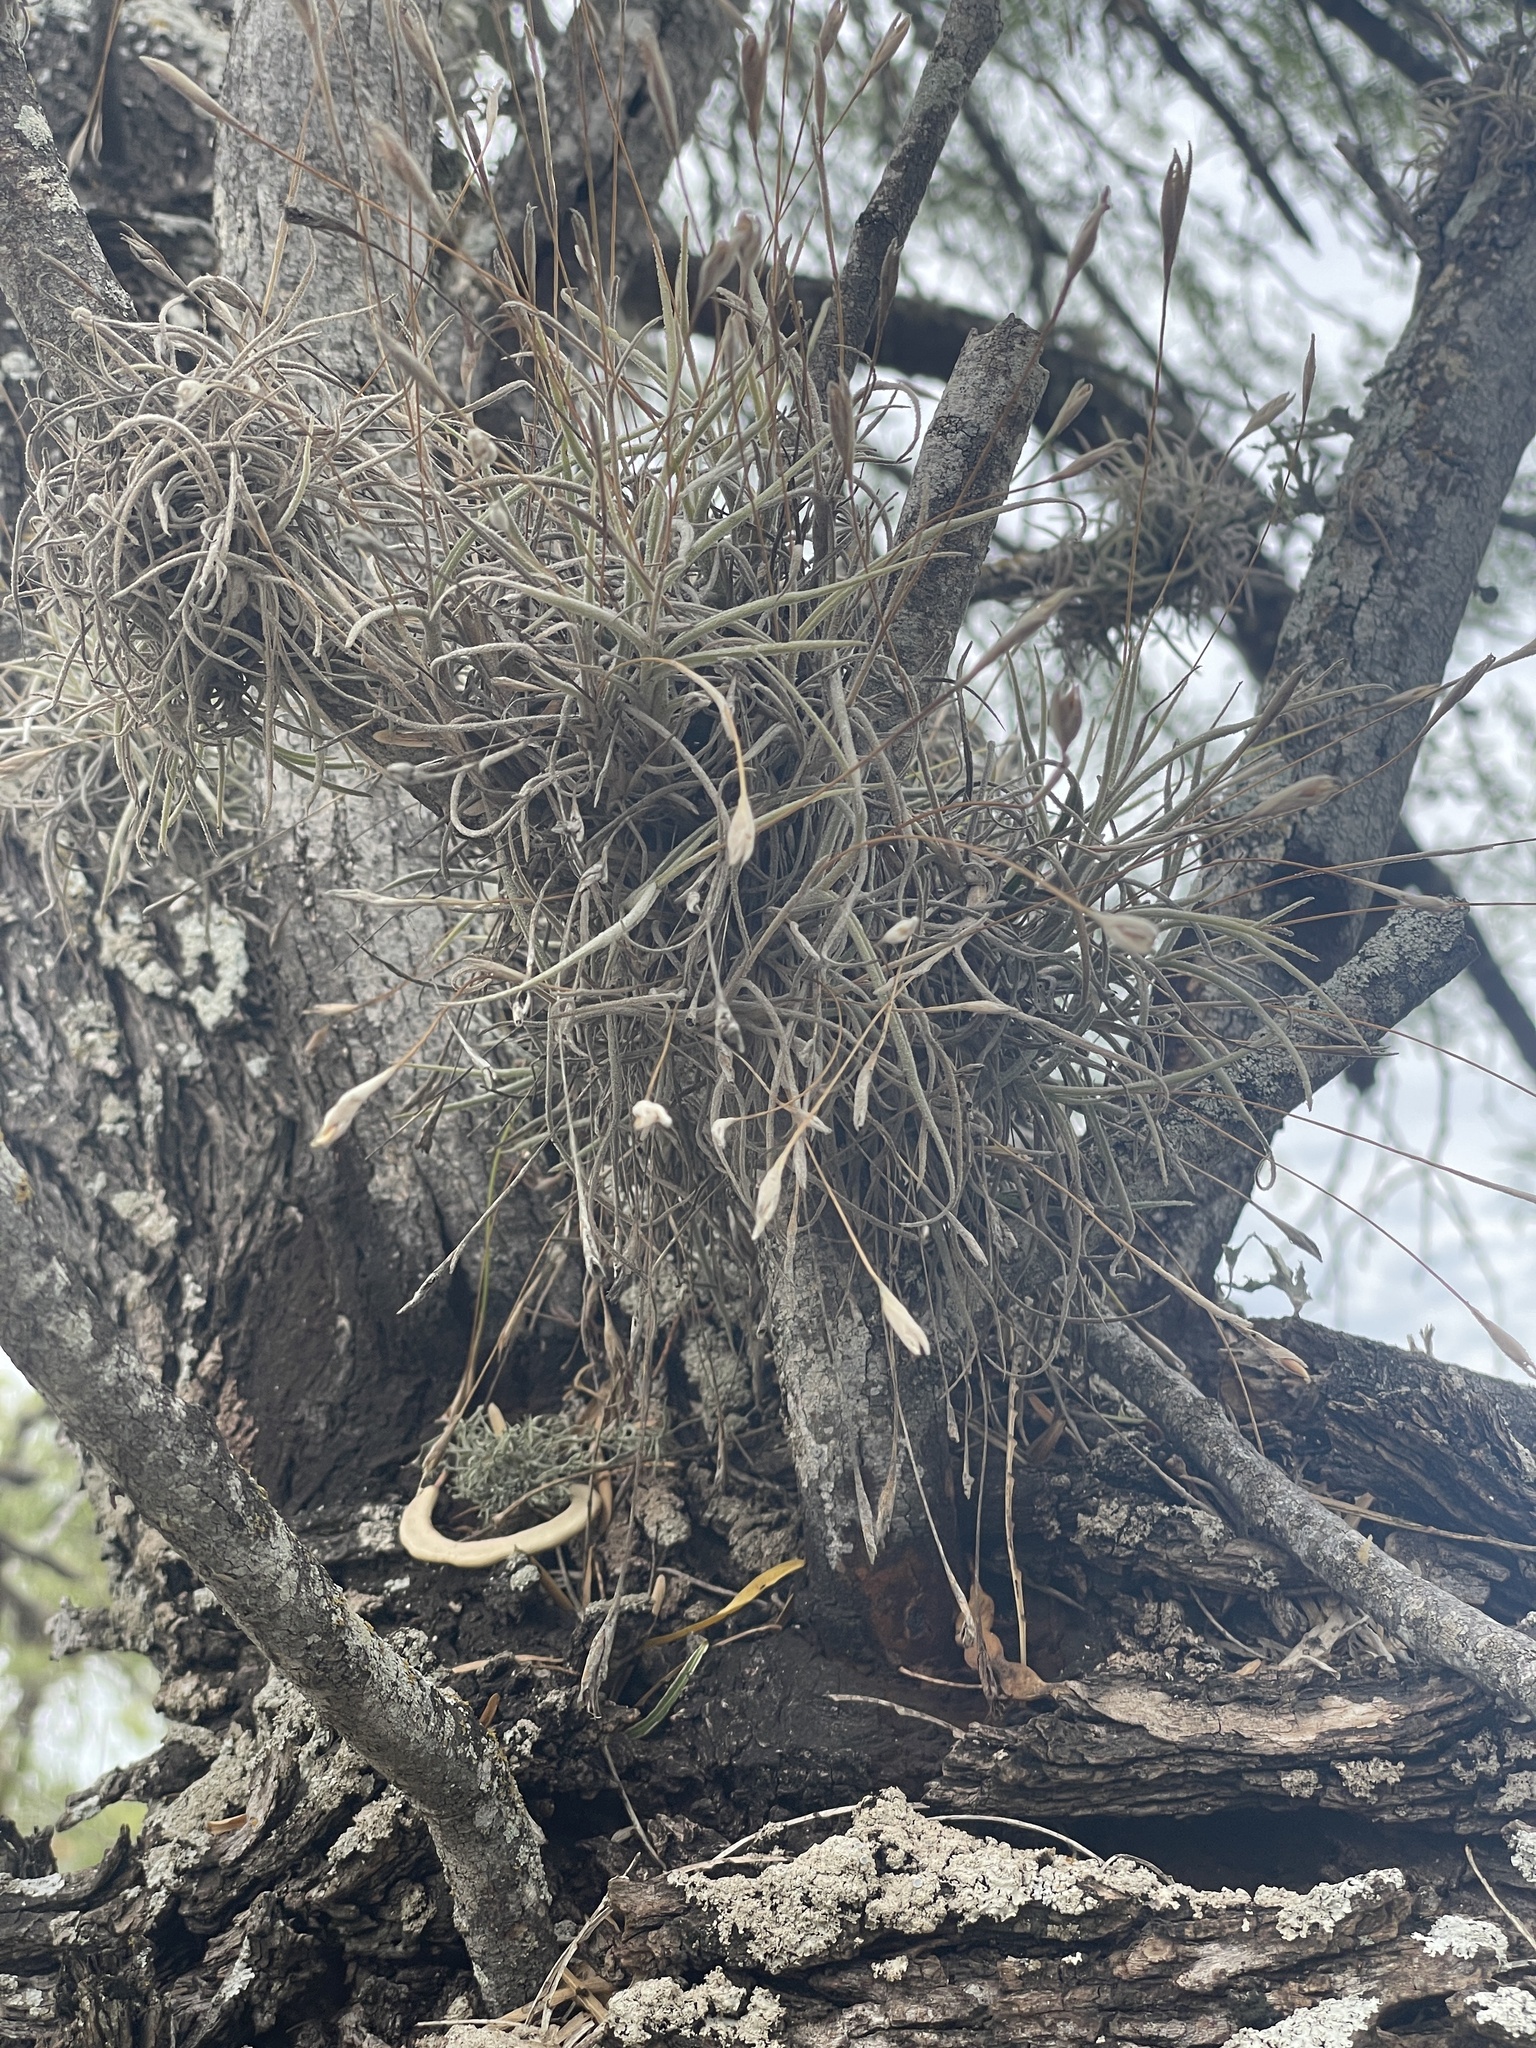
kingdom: Plantae
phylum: Tracheophyta
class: Liliopsida
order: Poales
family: Bromeliaceae
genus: Tillandsia
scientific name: Tillandsia recurvata
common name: Small ballmoss
